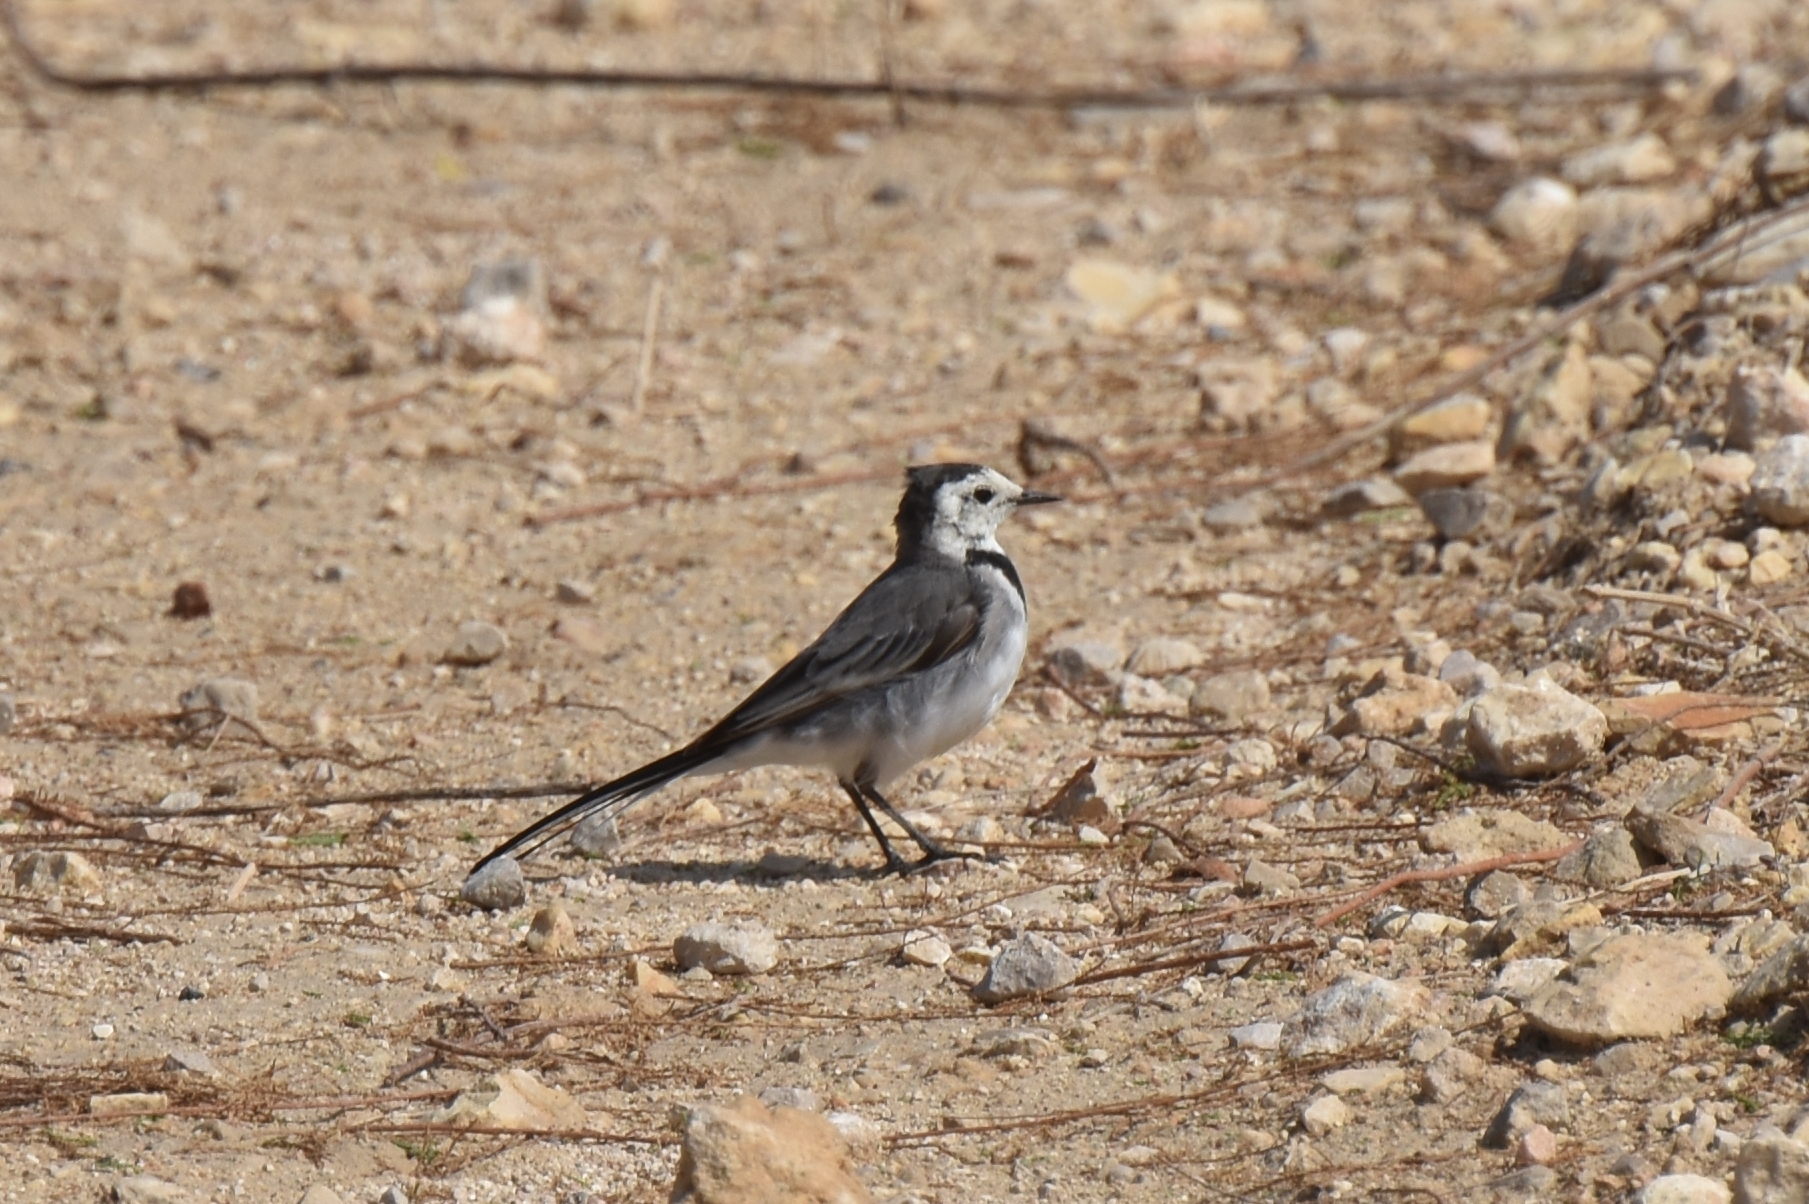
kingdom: Animalia
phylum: Chordata
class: Aves
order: Passeriformes
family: Motacillidae
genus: Motacilla
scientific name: Motacilla alba
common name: White wagtail
